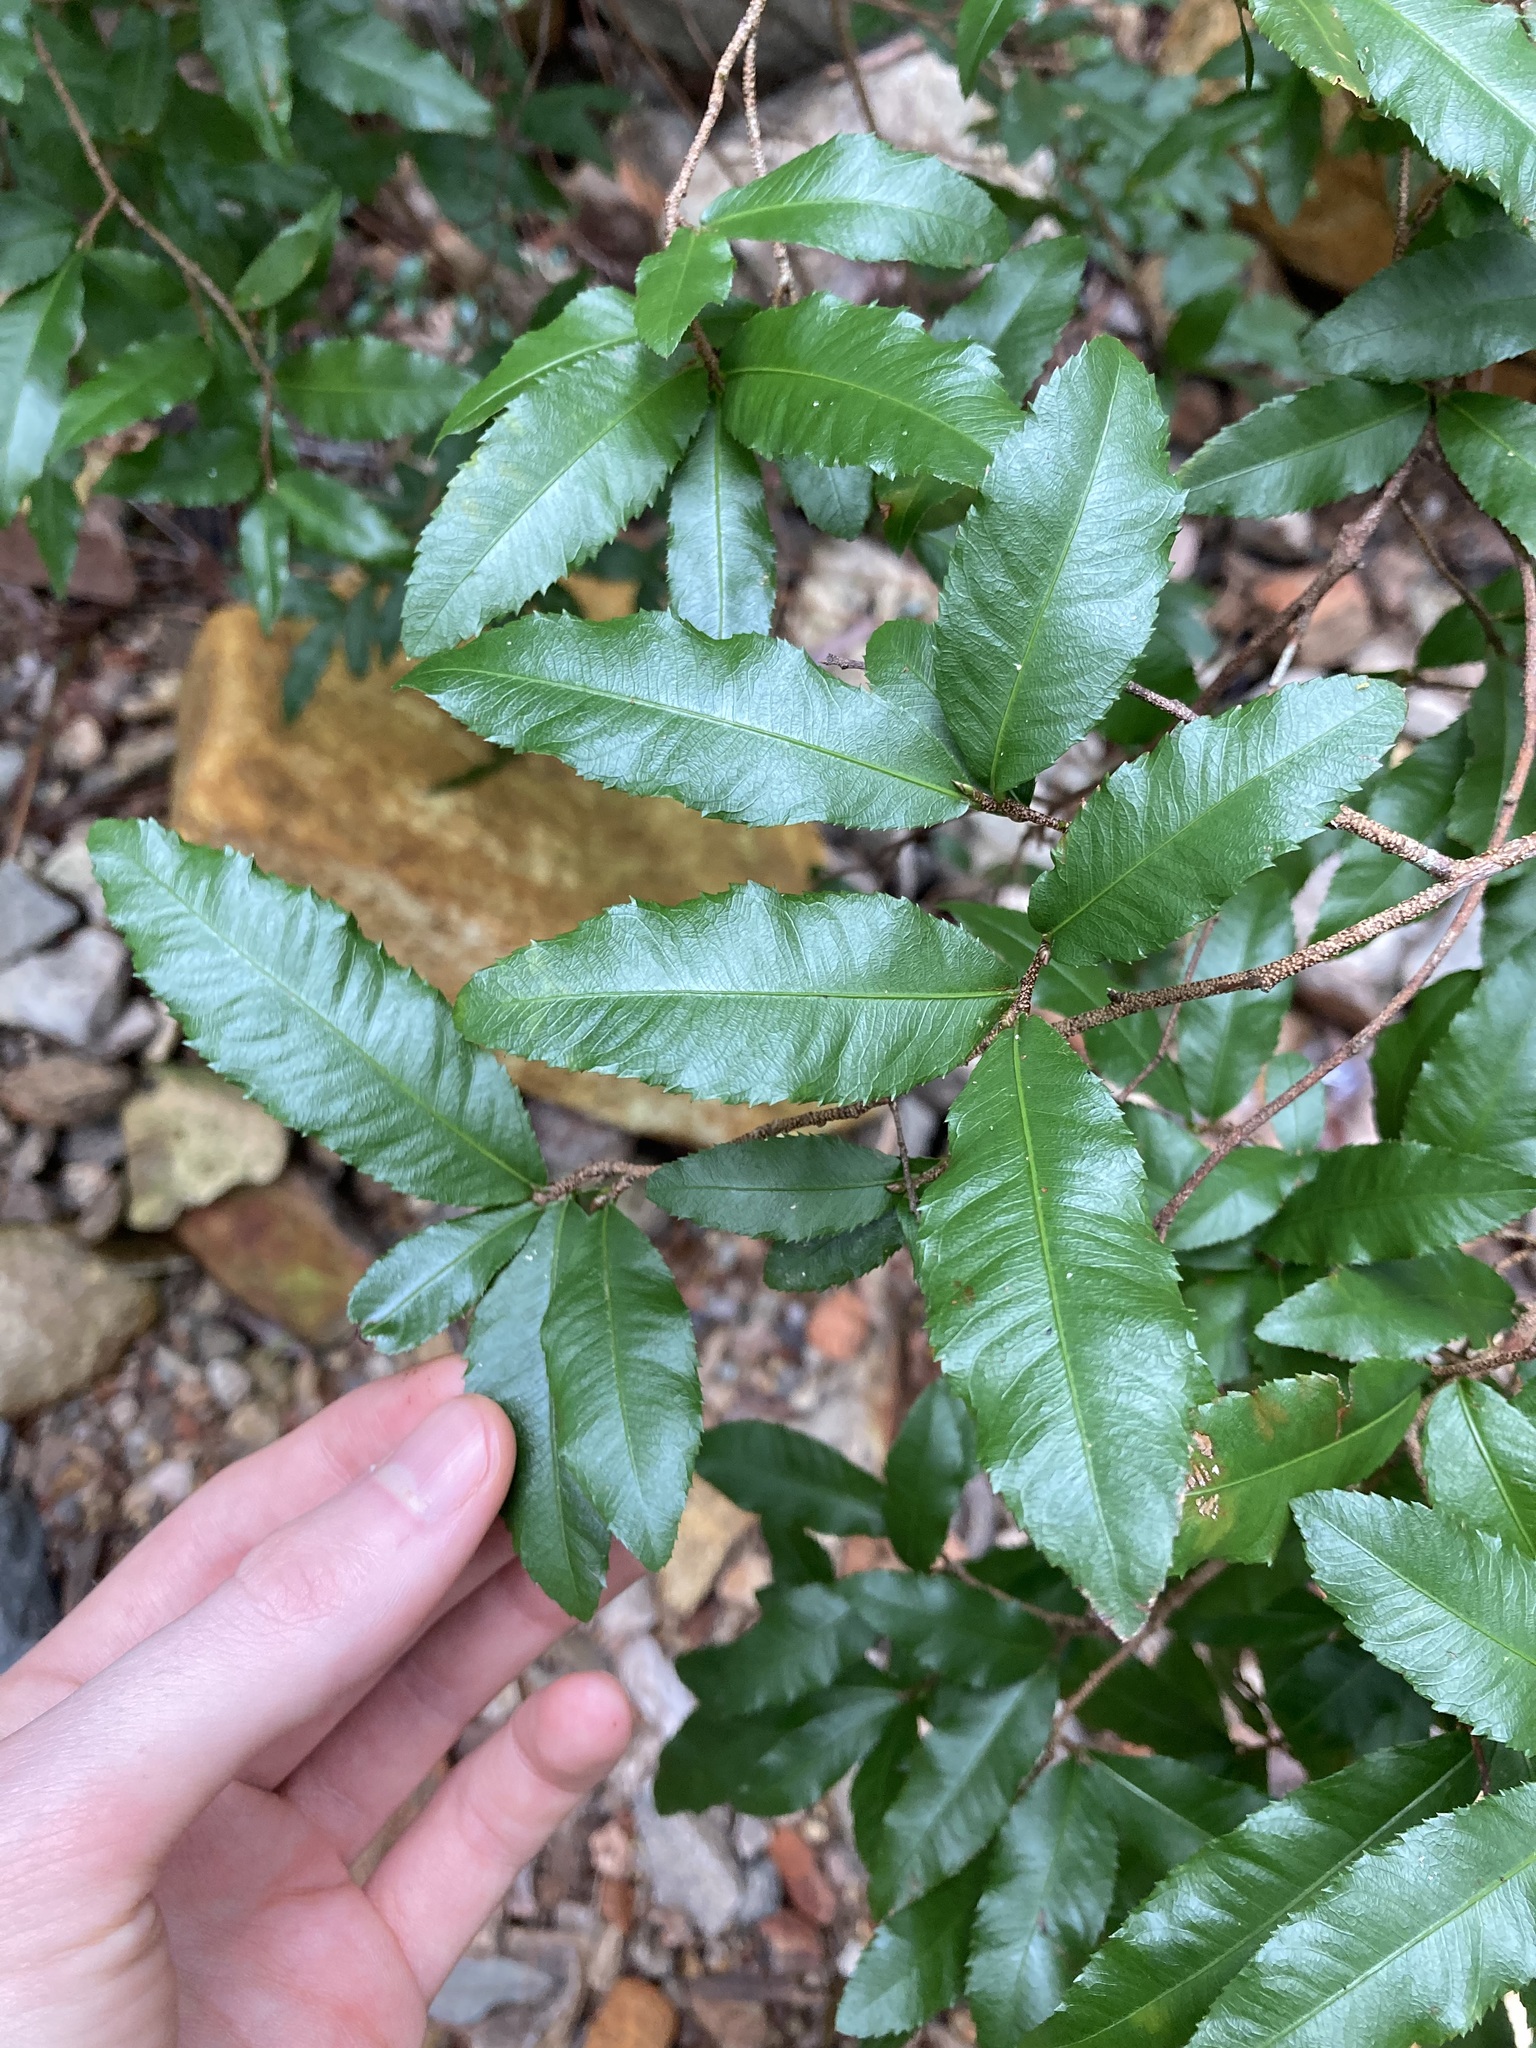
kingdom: Plantae
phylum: Tracheophyta
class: Magnoliopsida
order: Malpighiales
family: Ochnaceae
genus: Ochna
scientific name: Ochna serrulata
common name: Mickey mouse plant
